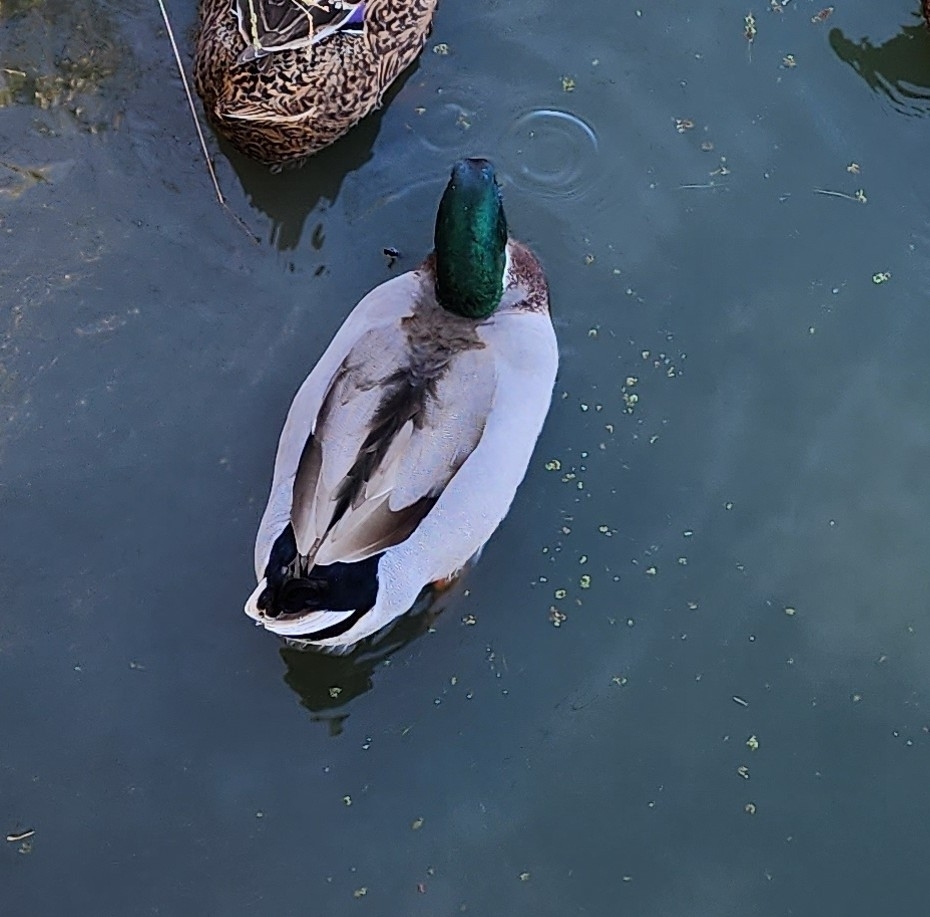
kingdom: Animalia
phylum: Chordata
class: Aves
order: Anseriformes
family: Anatidae
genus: Anas
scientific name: Anas platyrhynchos
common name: Mallard
